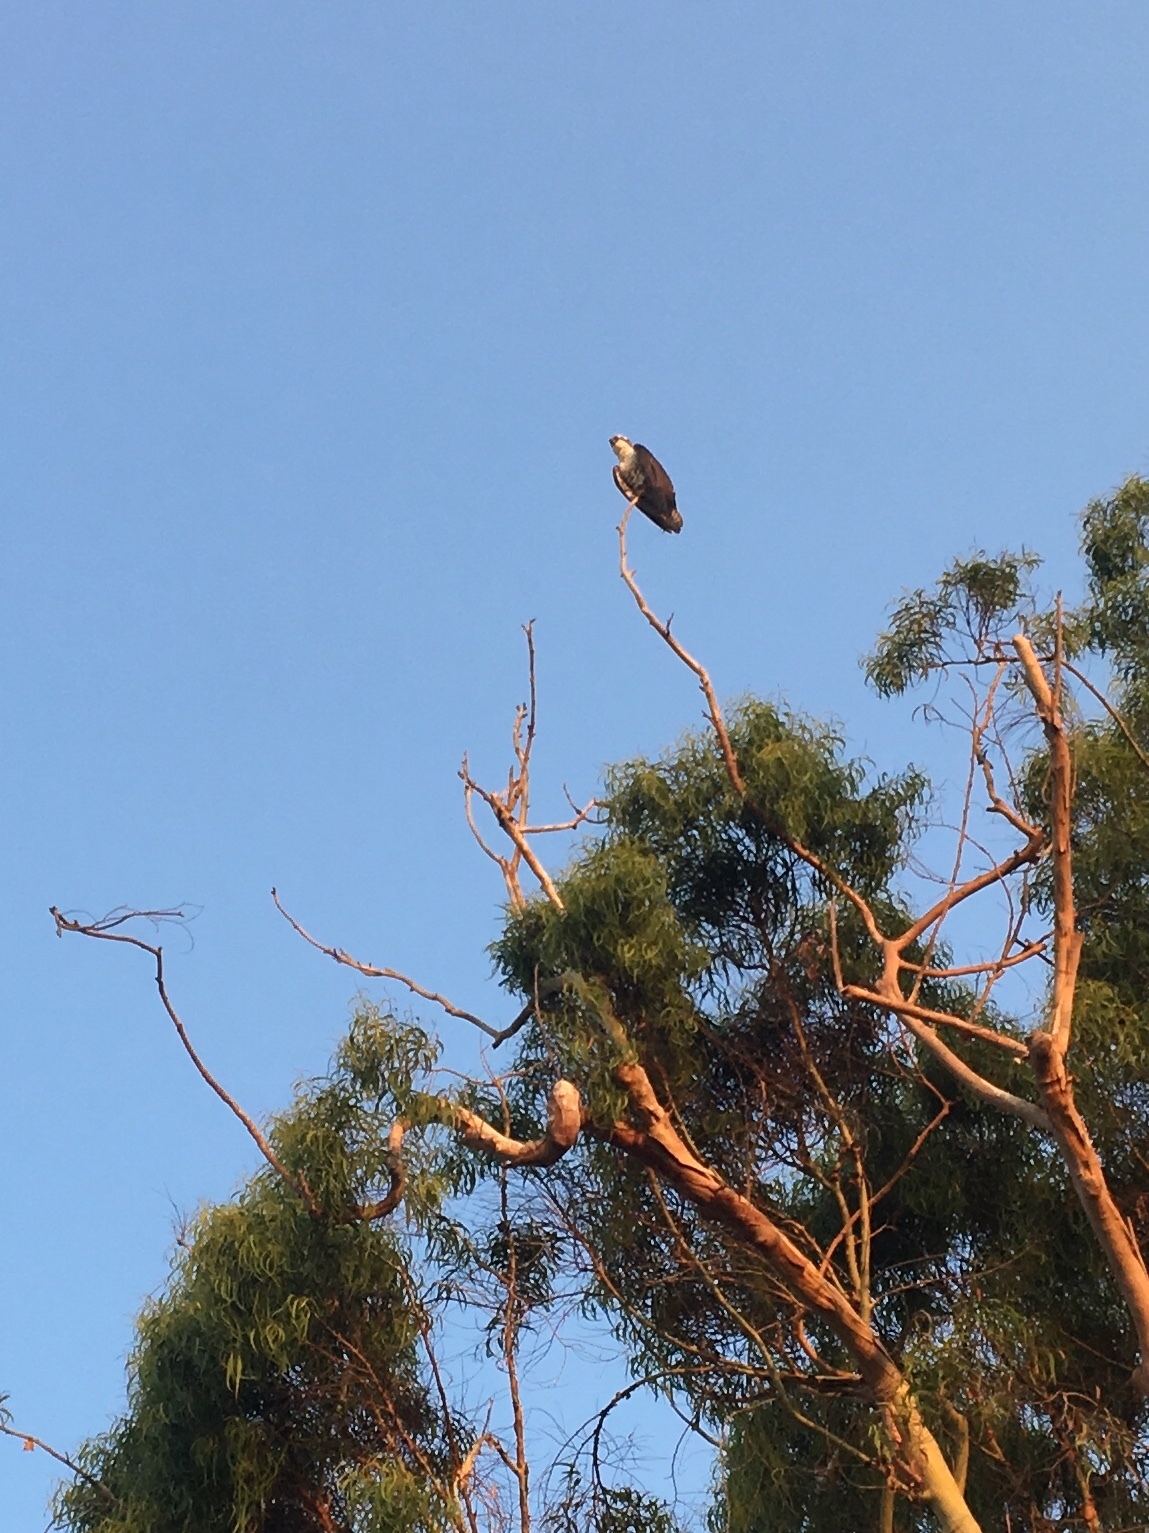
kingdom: Animalia
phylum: Chordata
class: Aves
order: Accipitriformes
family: Pandionidae
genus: Pandion
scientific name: Pandion haliaetus
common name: Osprey
